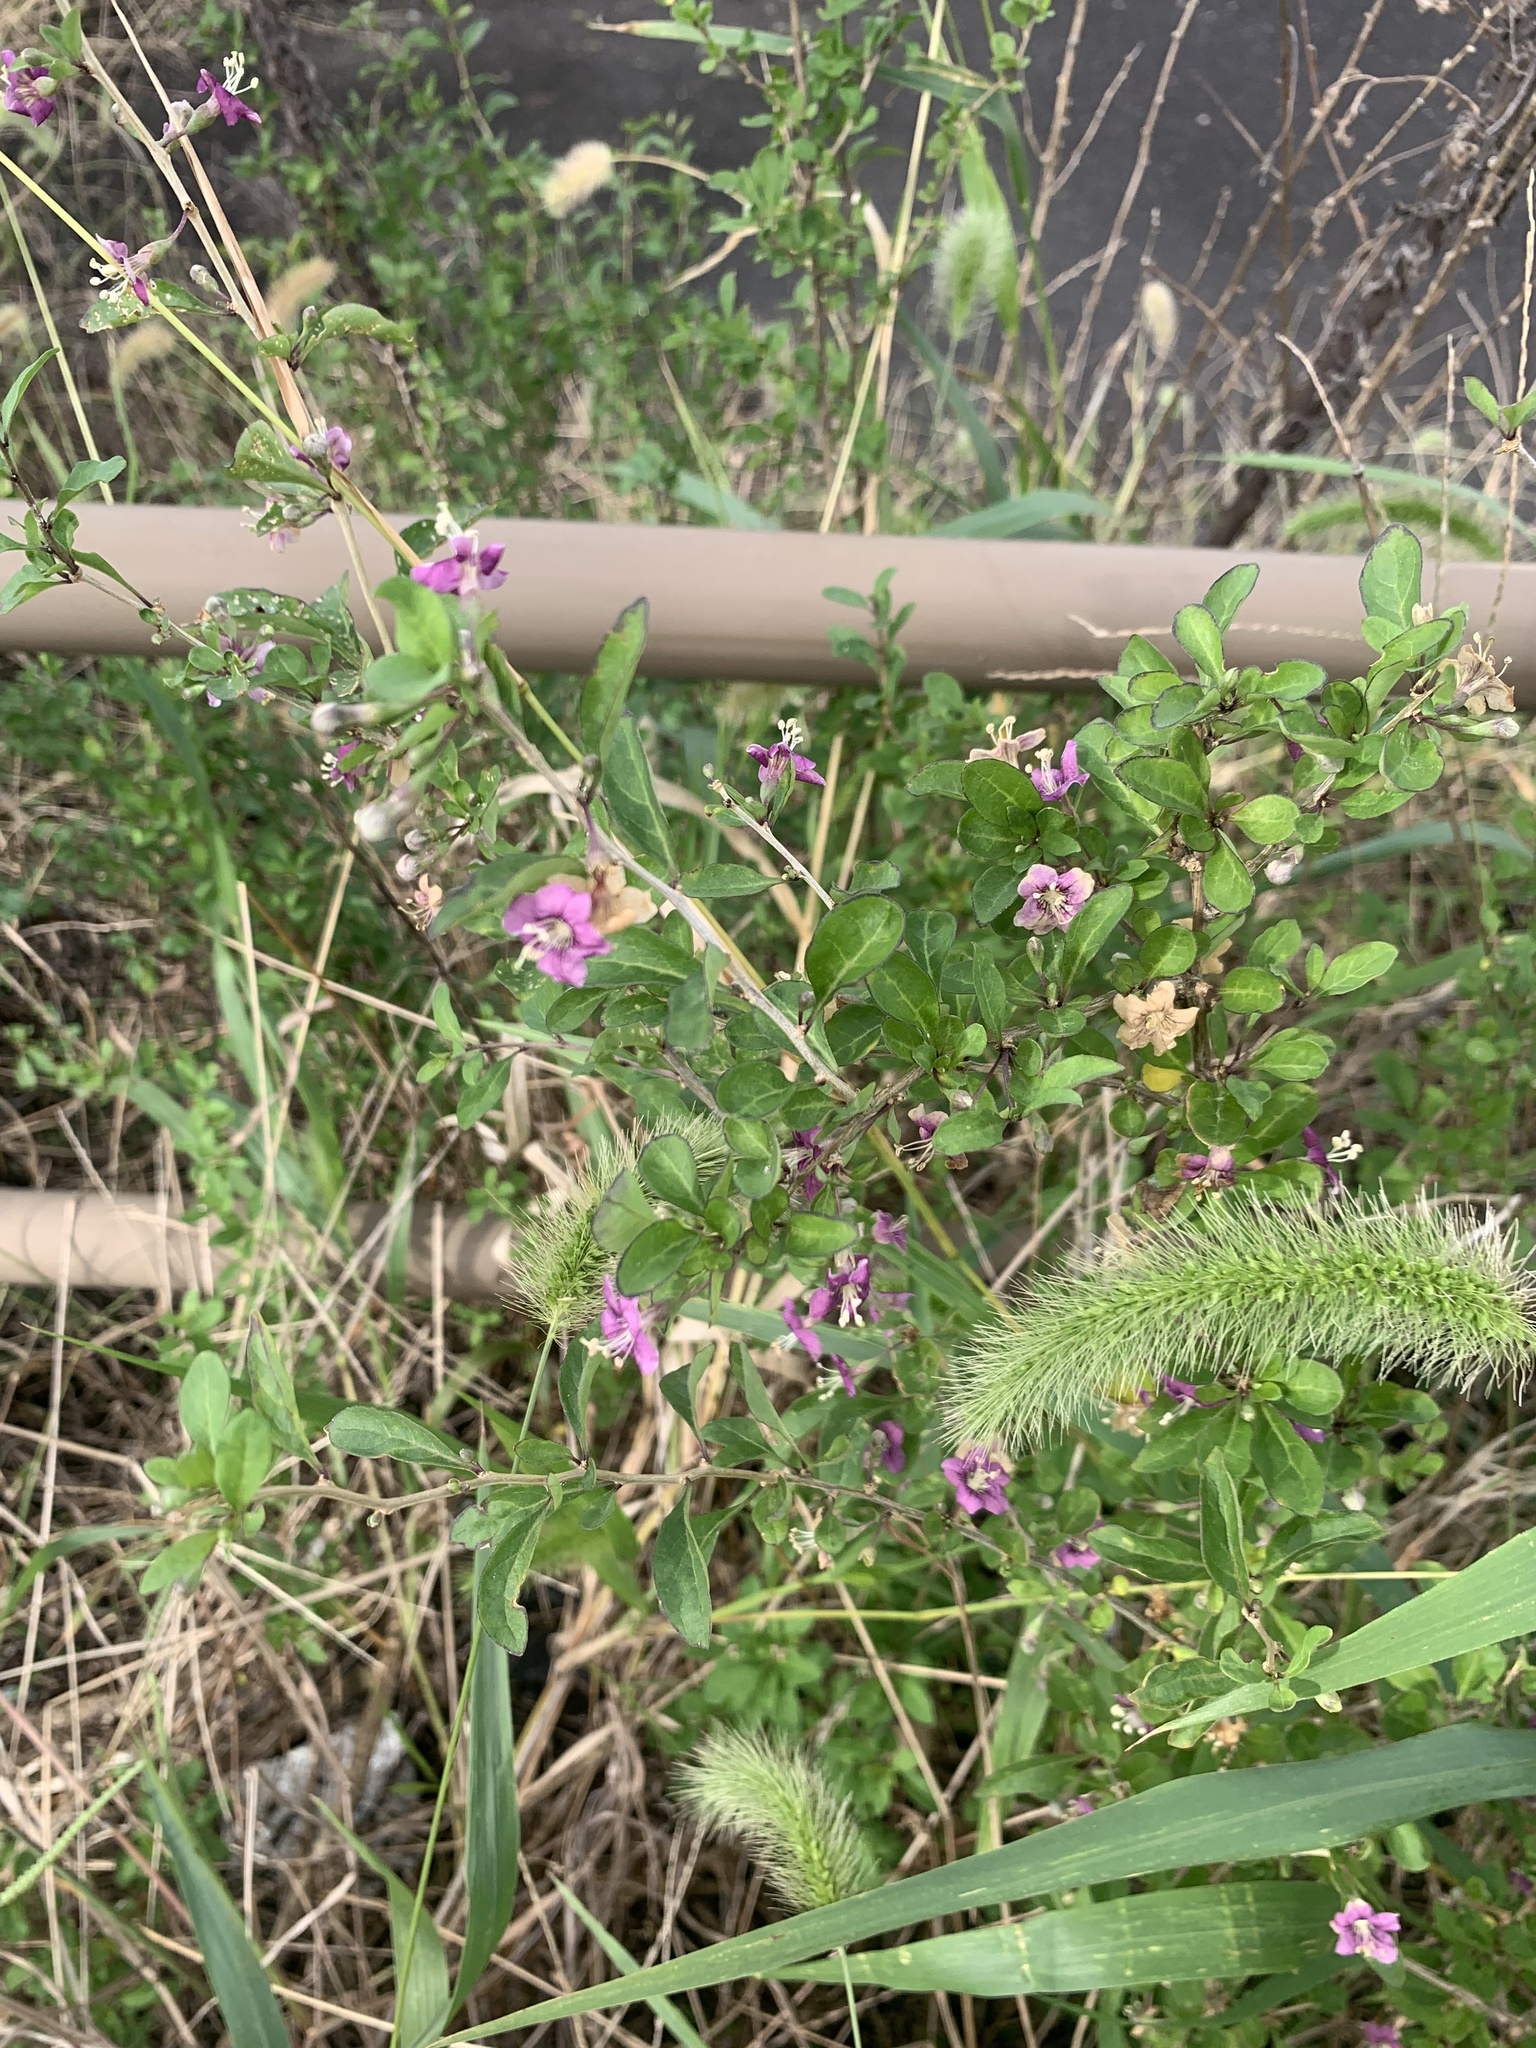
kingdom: Plantae
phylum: Tracheophyta
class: Magnoliopsida
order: Solanales
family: Solanaceae
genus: Lycium
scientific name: Lycium chinense
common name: Chinese teaplant
